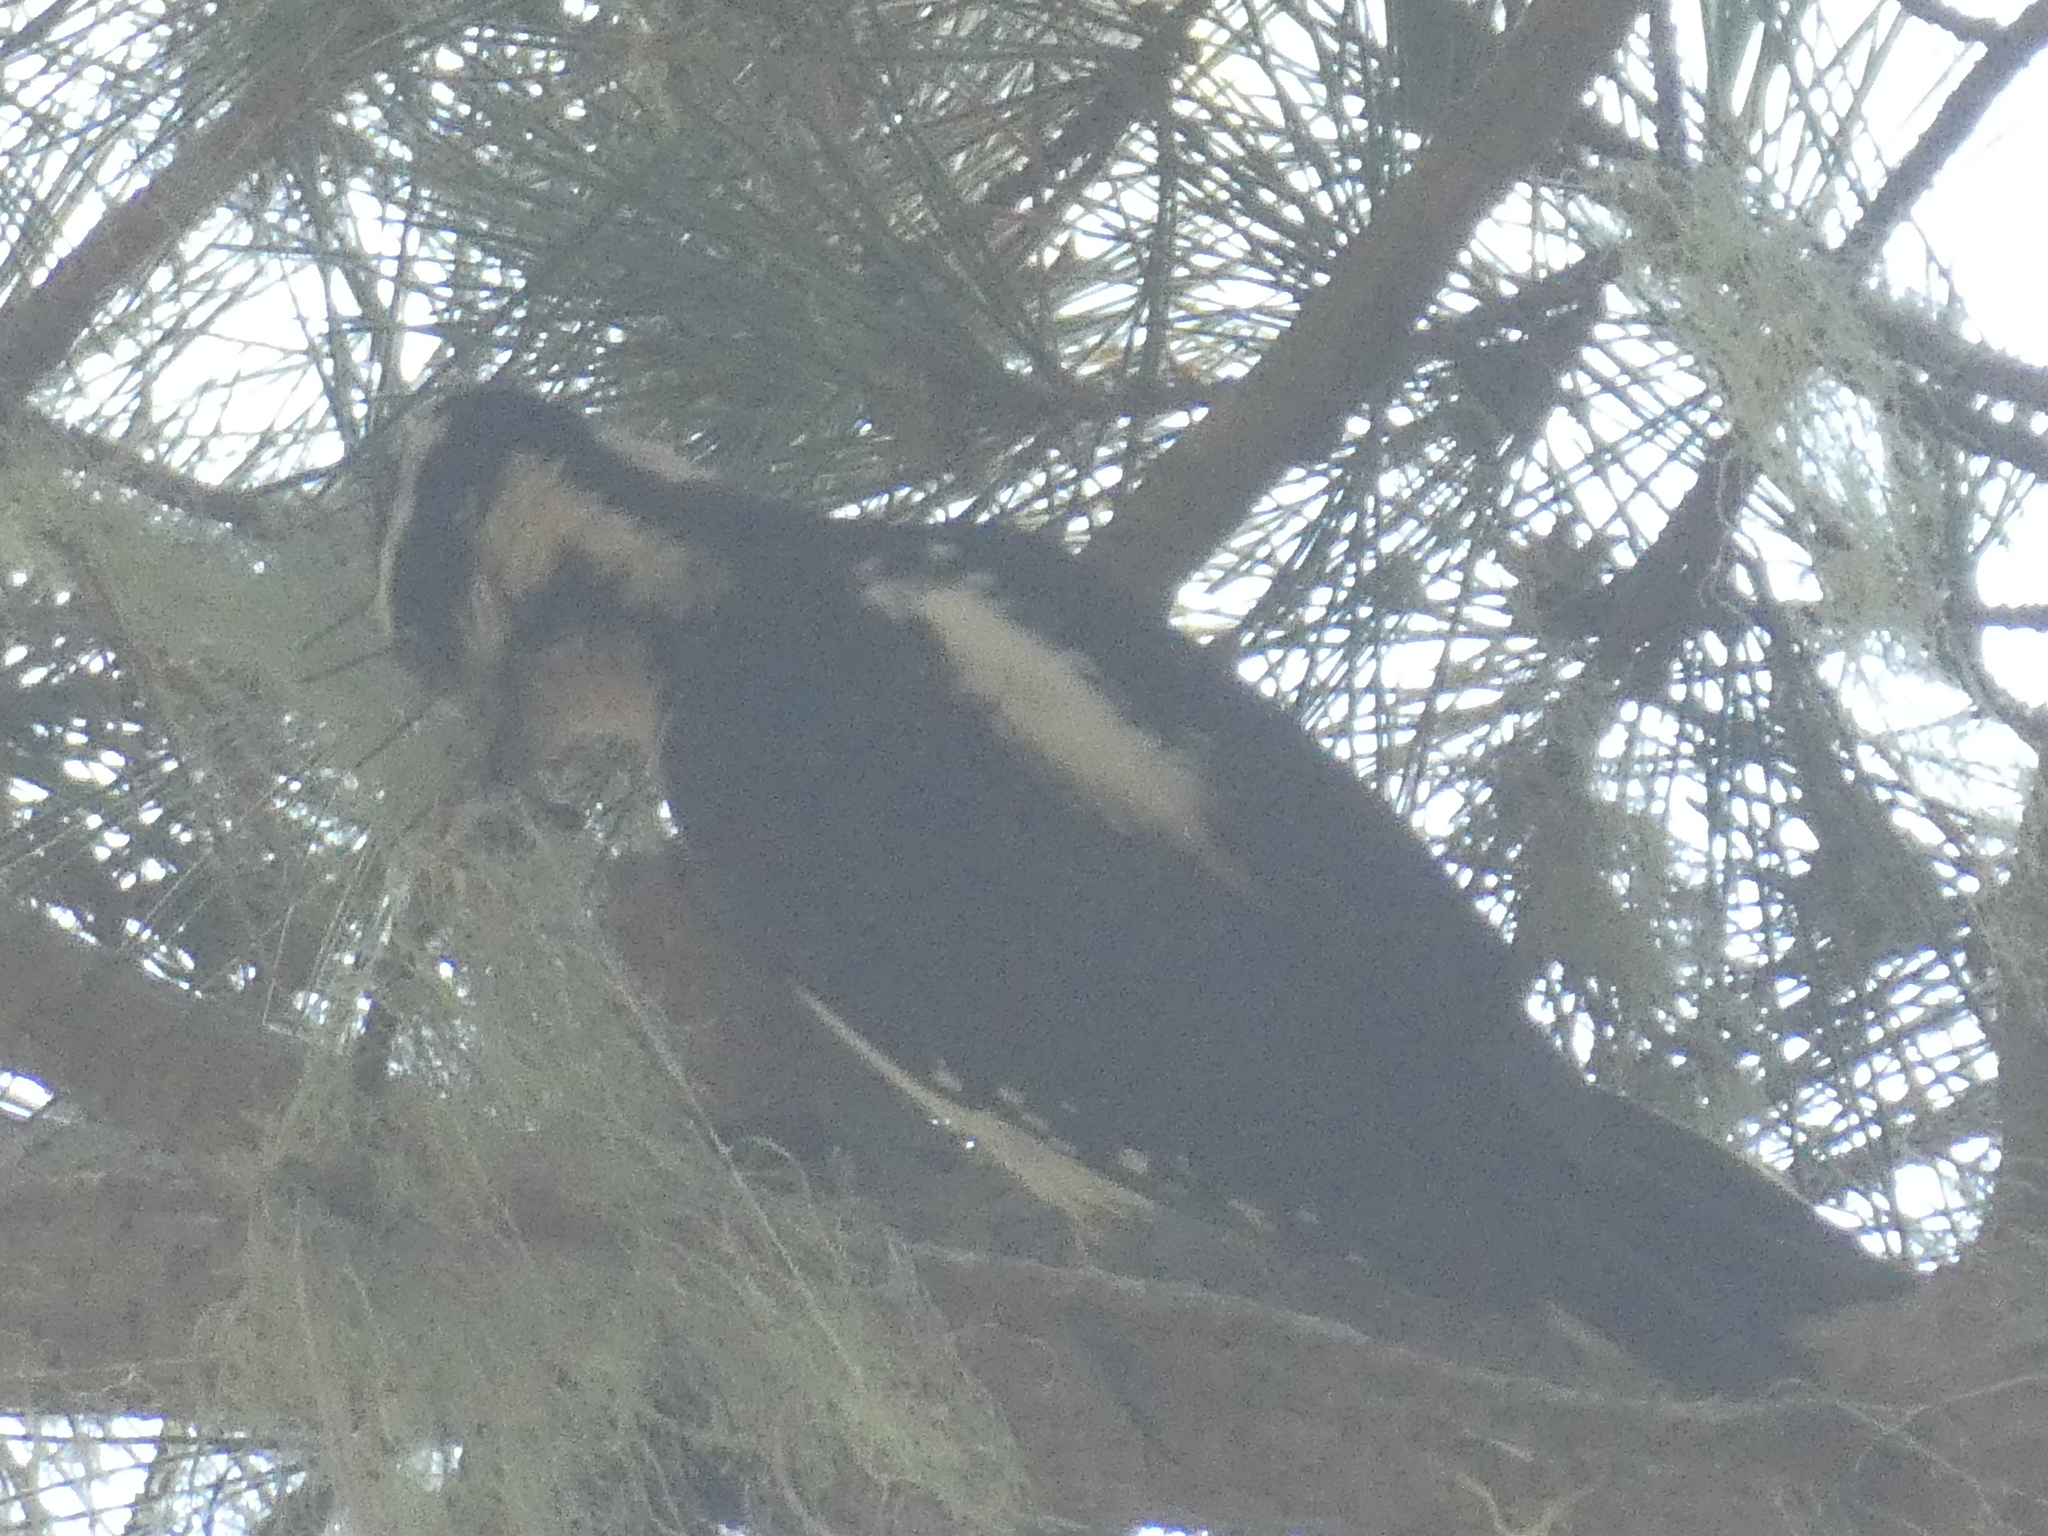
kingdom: Animalia
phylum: Chordata
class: Aves
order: Piciformes
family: Picidae
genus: Leuconotopicus
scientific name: Leuconotopicus villosus
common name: Hairy woodpecker
